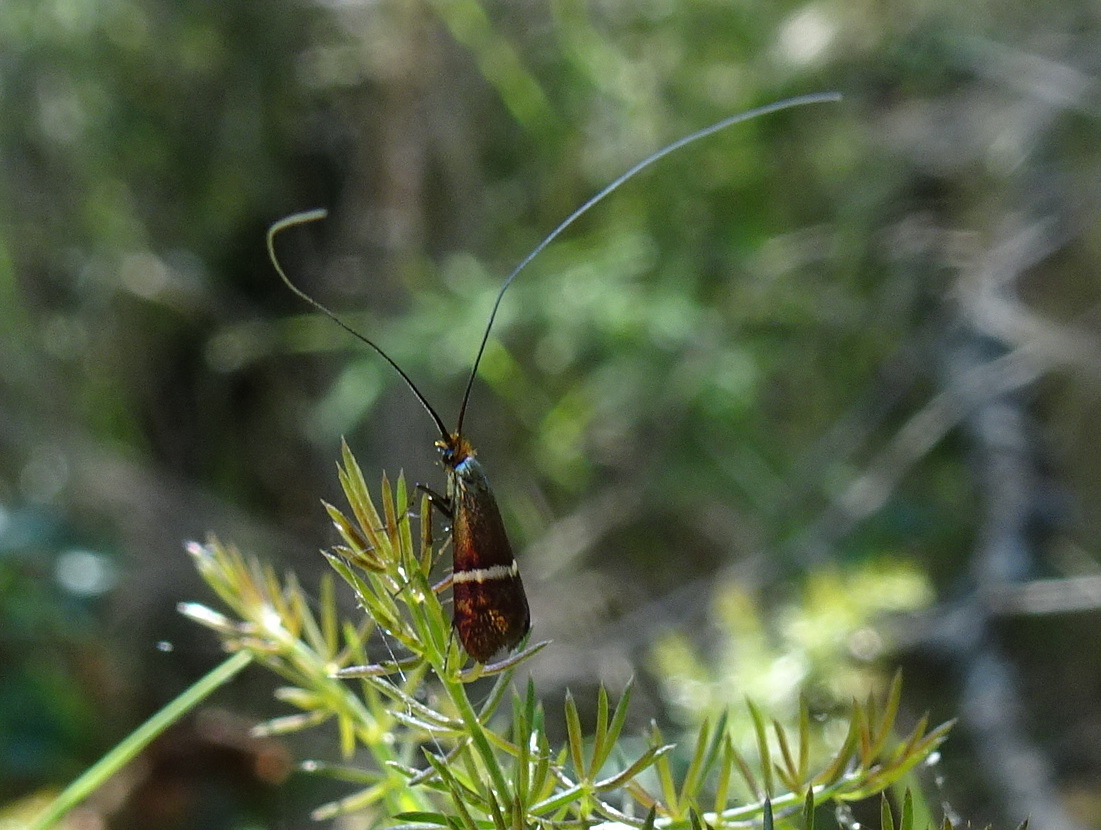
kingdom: Animalia
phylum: Arthropoda
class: Insecta
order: Lepidoptera
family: Adelidae
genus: Adela
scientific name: Adela australis
